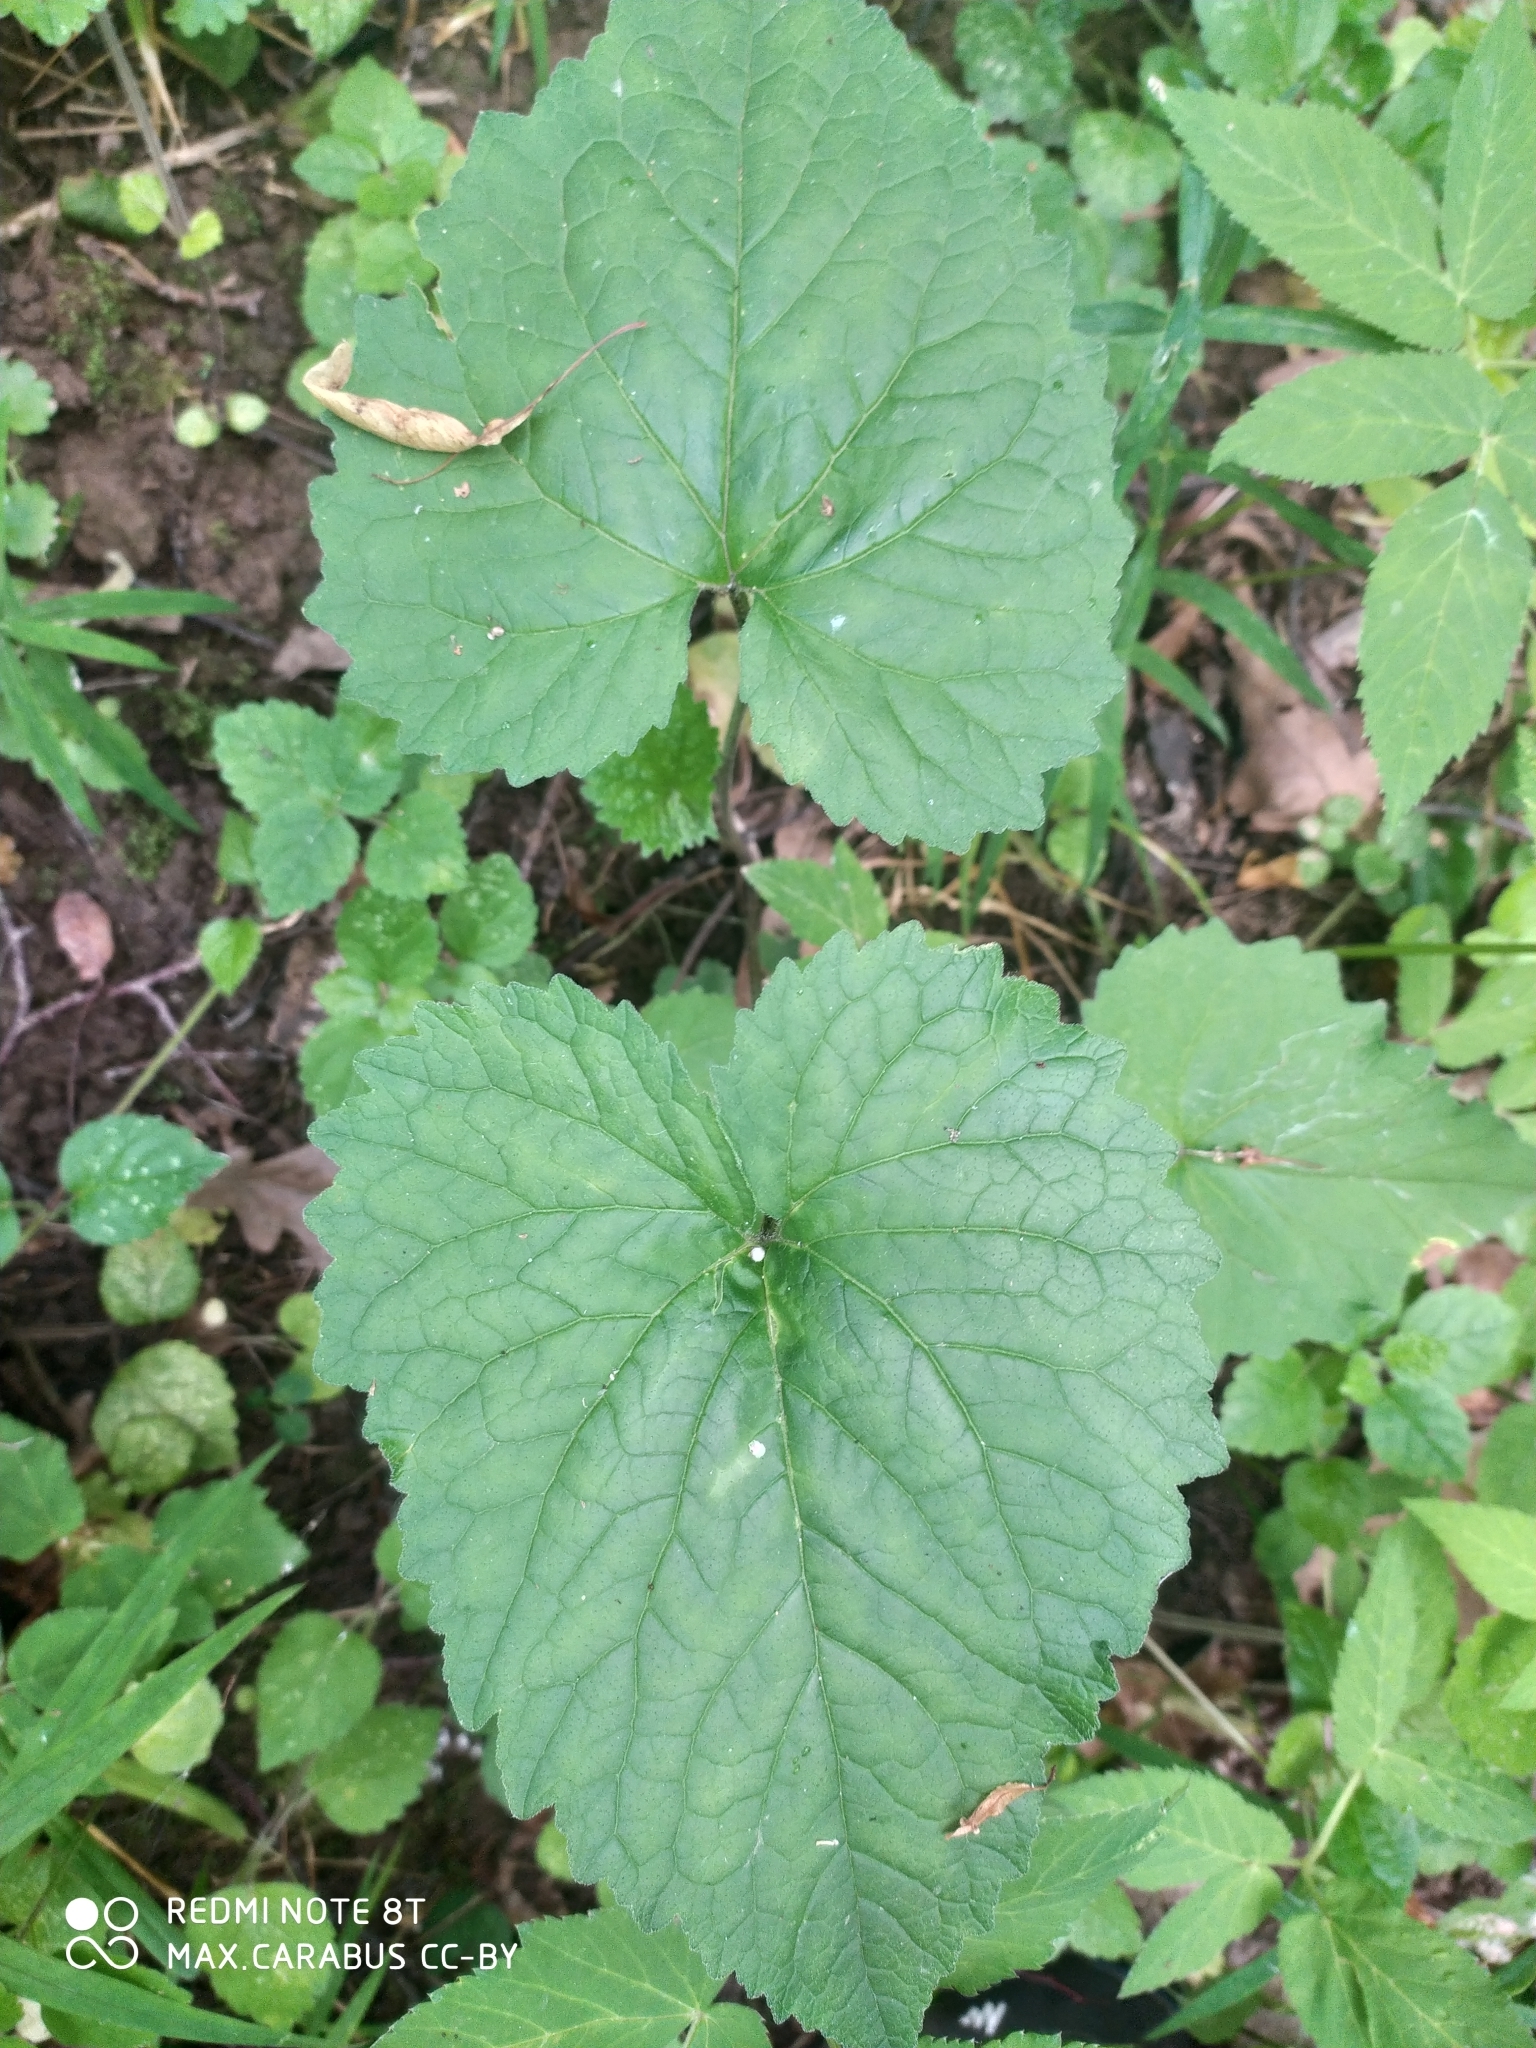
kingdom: Plantae
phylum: Tracheophyta
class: Magnoliopsida
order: Asterales
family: Campanulaceae
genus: Campanula
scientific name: Campanula trachelium
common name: Nettle-leaved bellflower
